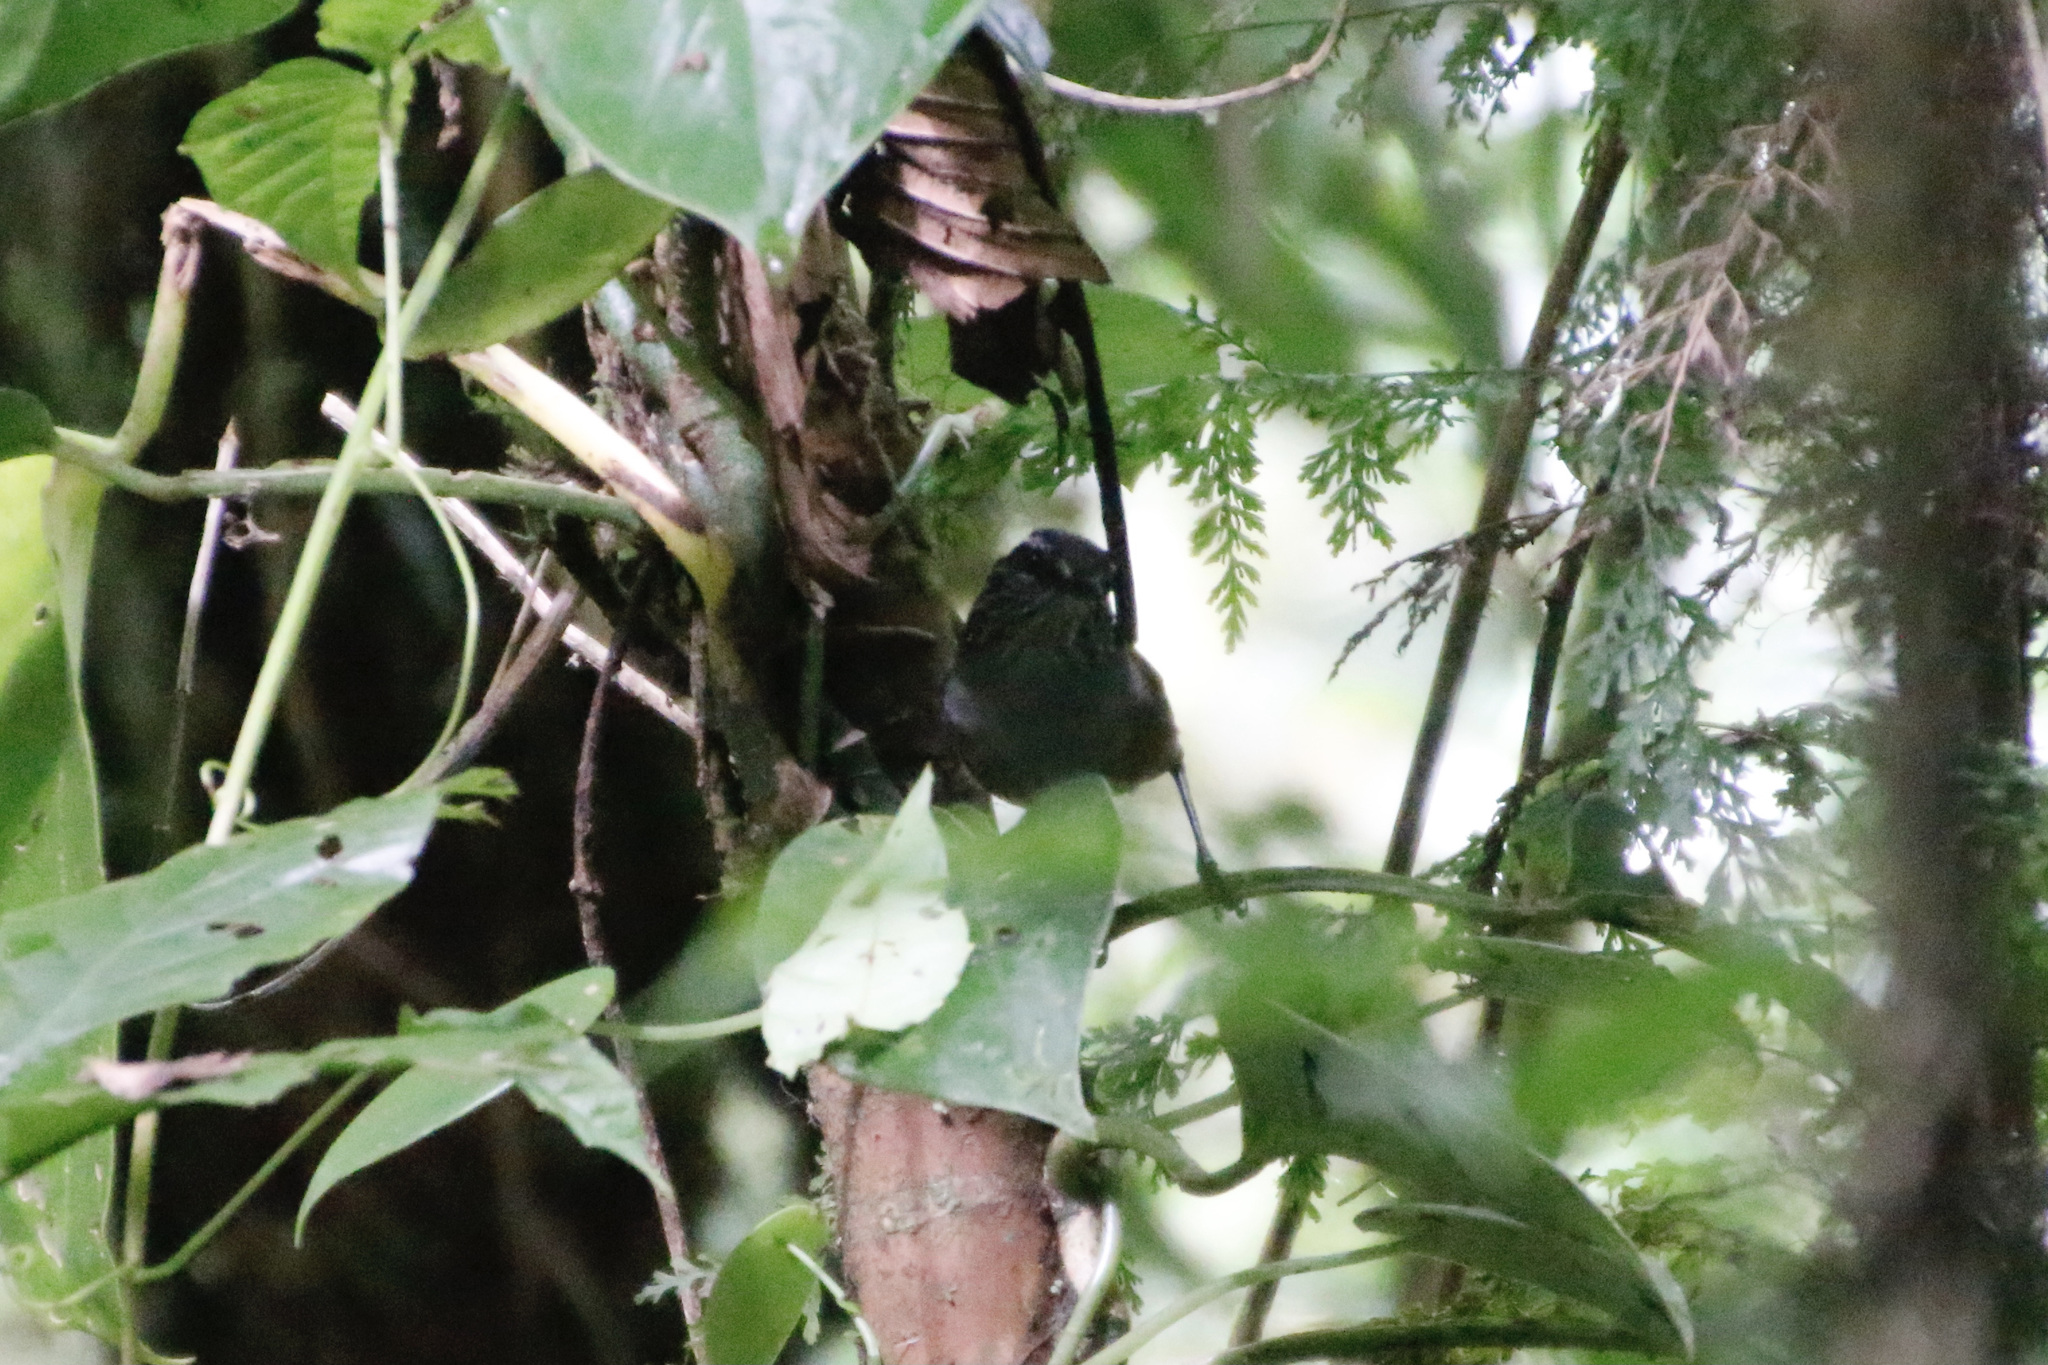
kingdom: Animalia
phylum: Chordata
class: Aves
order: Passeriformes
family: Troglodytidae
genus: Henicorhina
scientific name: Henicorhina leucophrys
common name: Gray-breasted wood-wren
